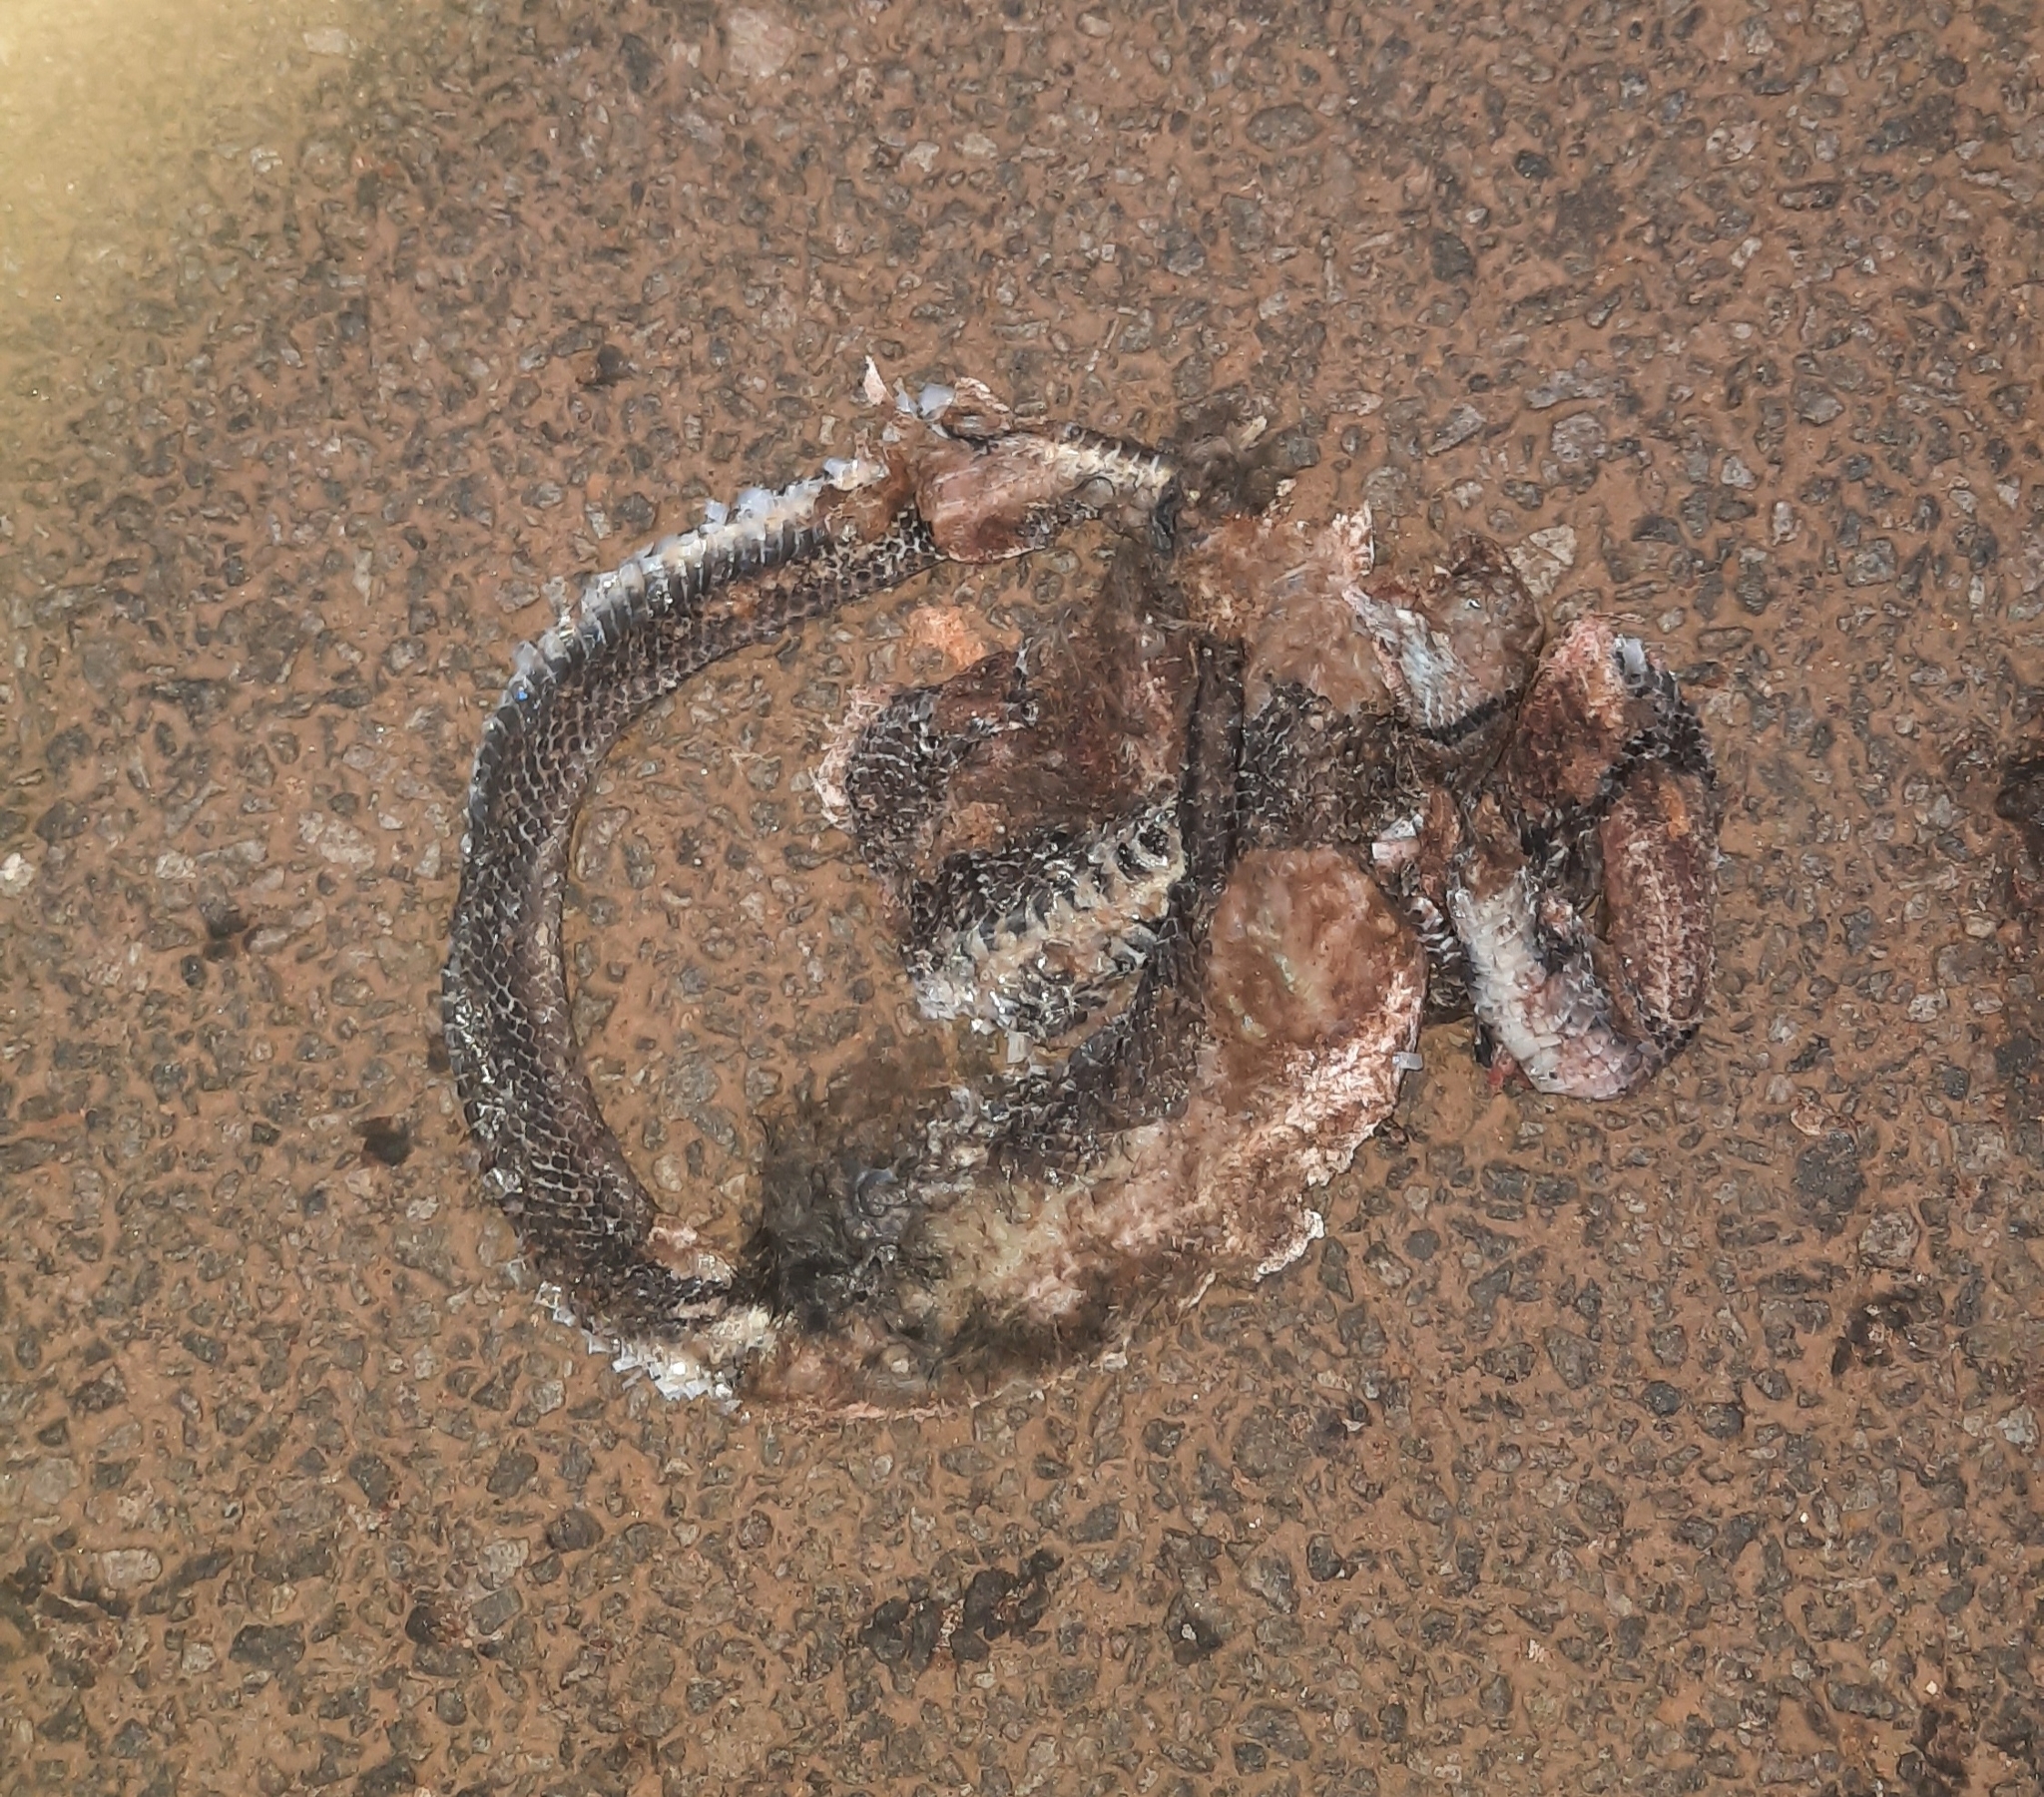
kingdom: Animalia
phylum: Chordata
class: Squamata
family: Colubridae
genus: Coelognathus
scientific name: Coelognathus helena
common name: Trinket snake
